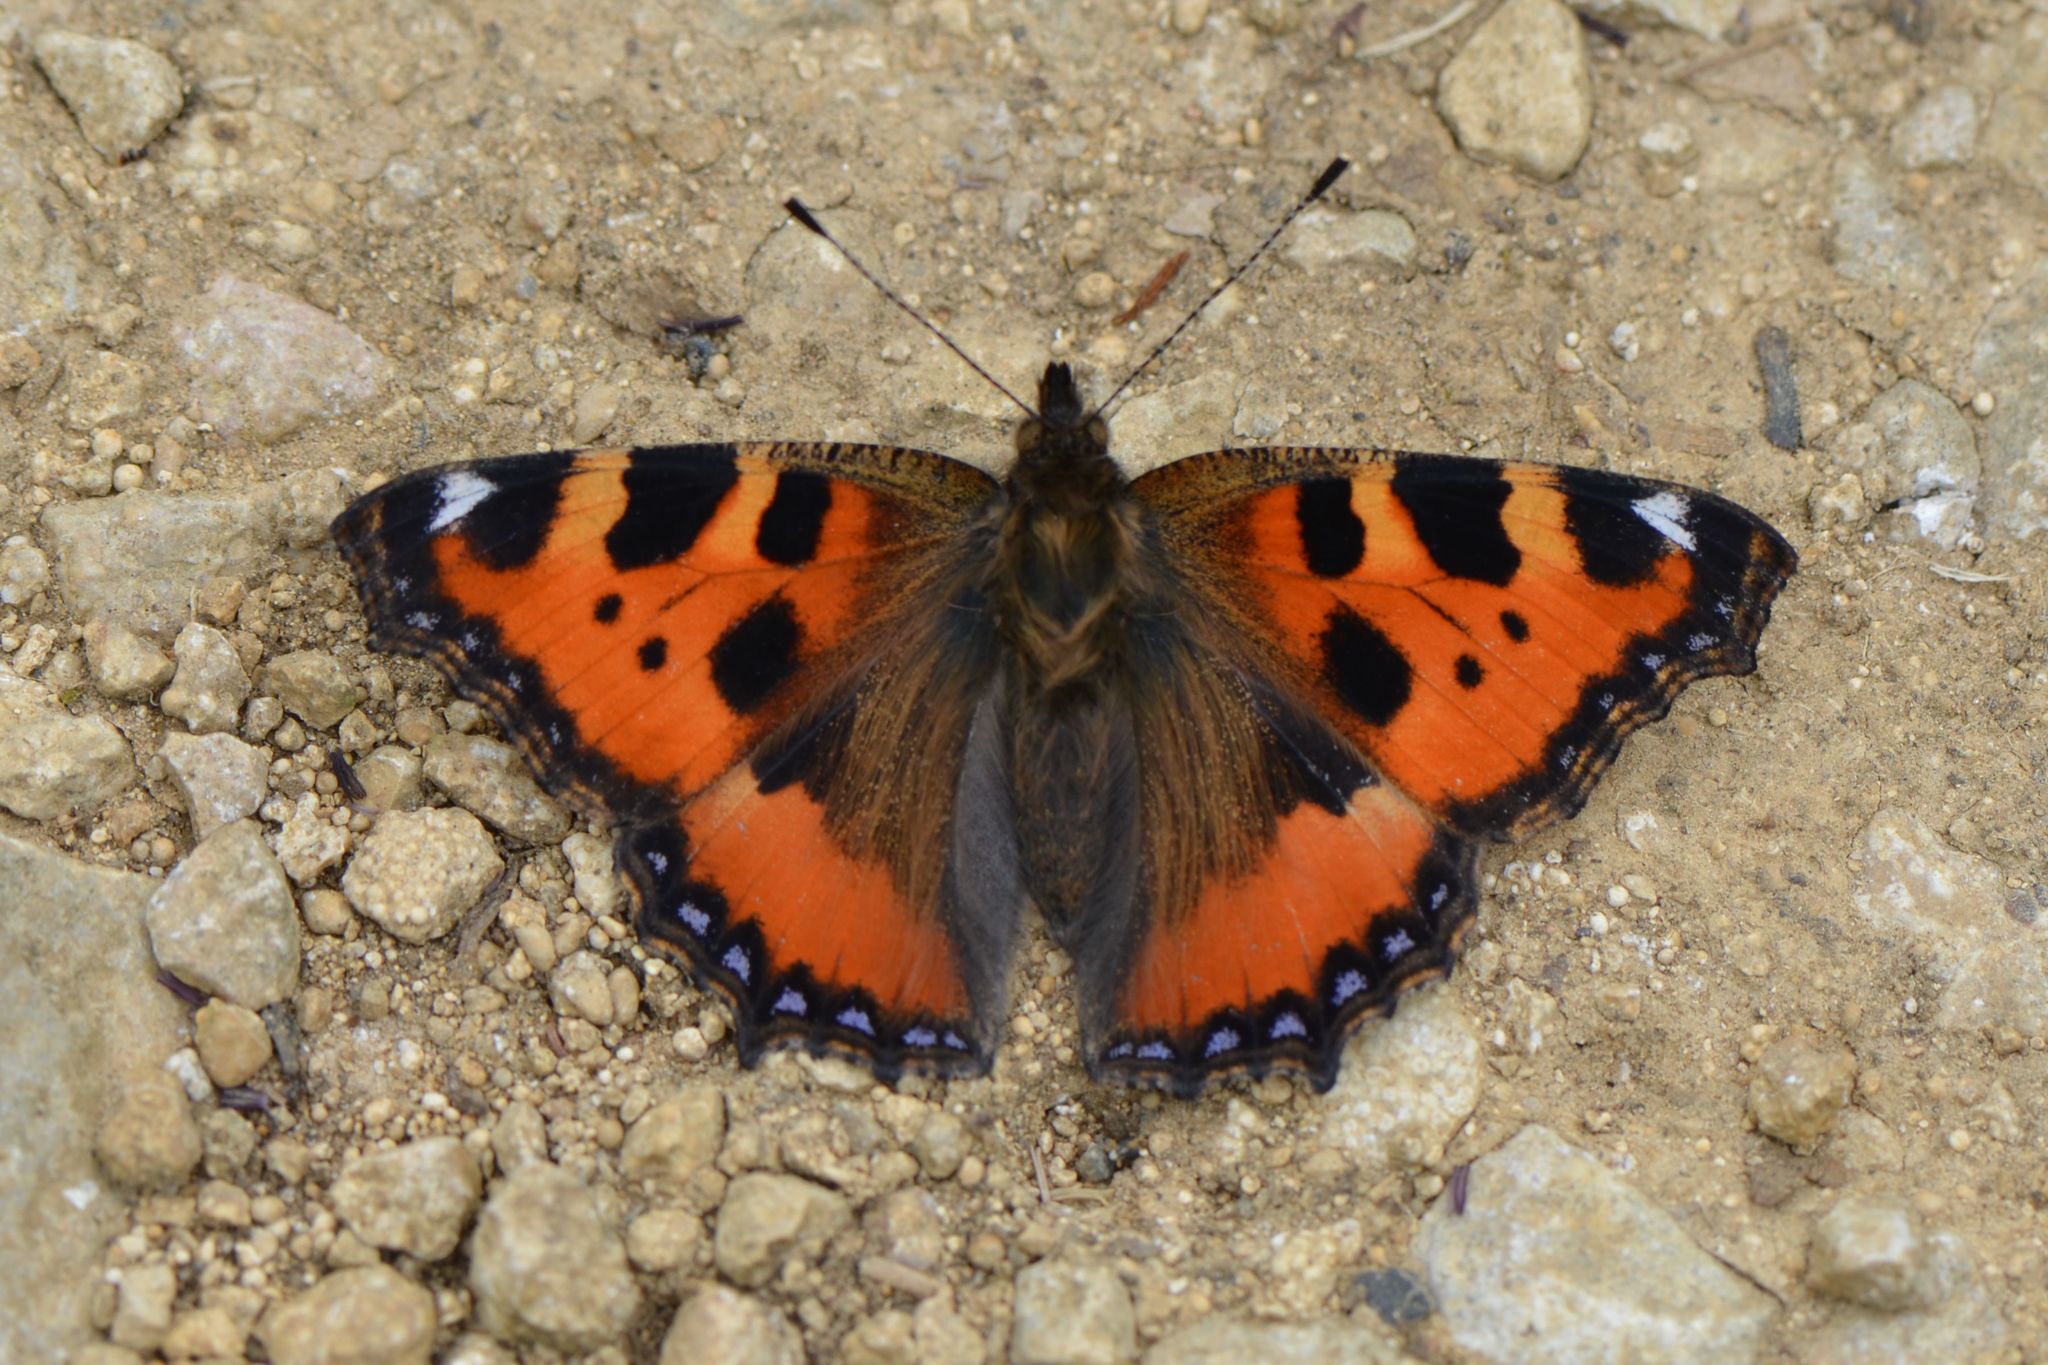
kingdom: Animalia
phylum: Arthropoda
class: Insecta
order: Lepidoptera
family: Nymphalidae
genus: Aglais
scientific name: Aglais urticae
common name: Small tortoiseshell
